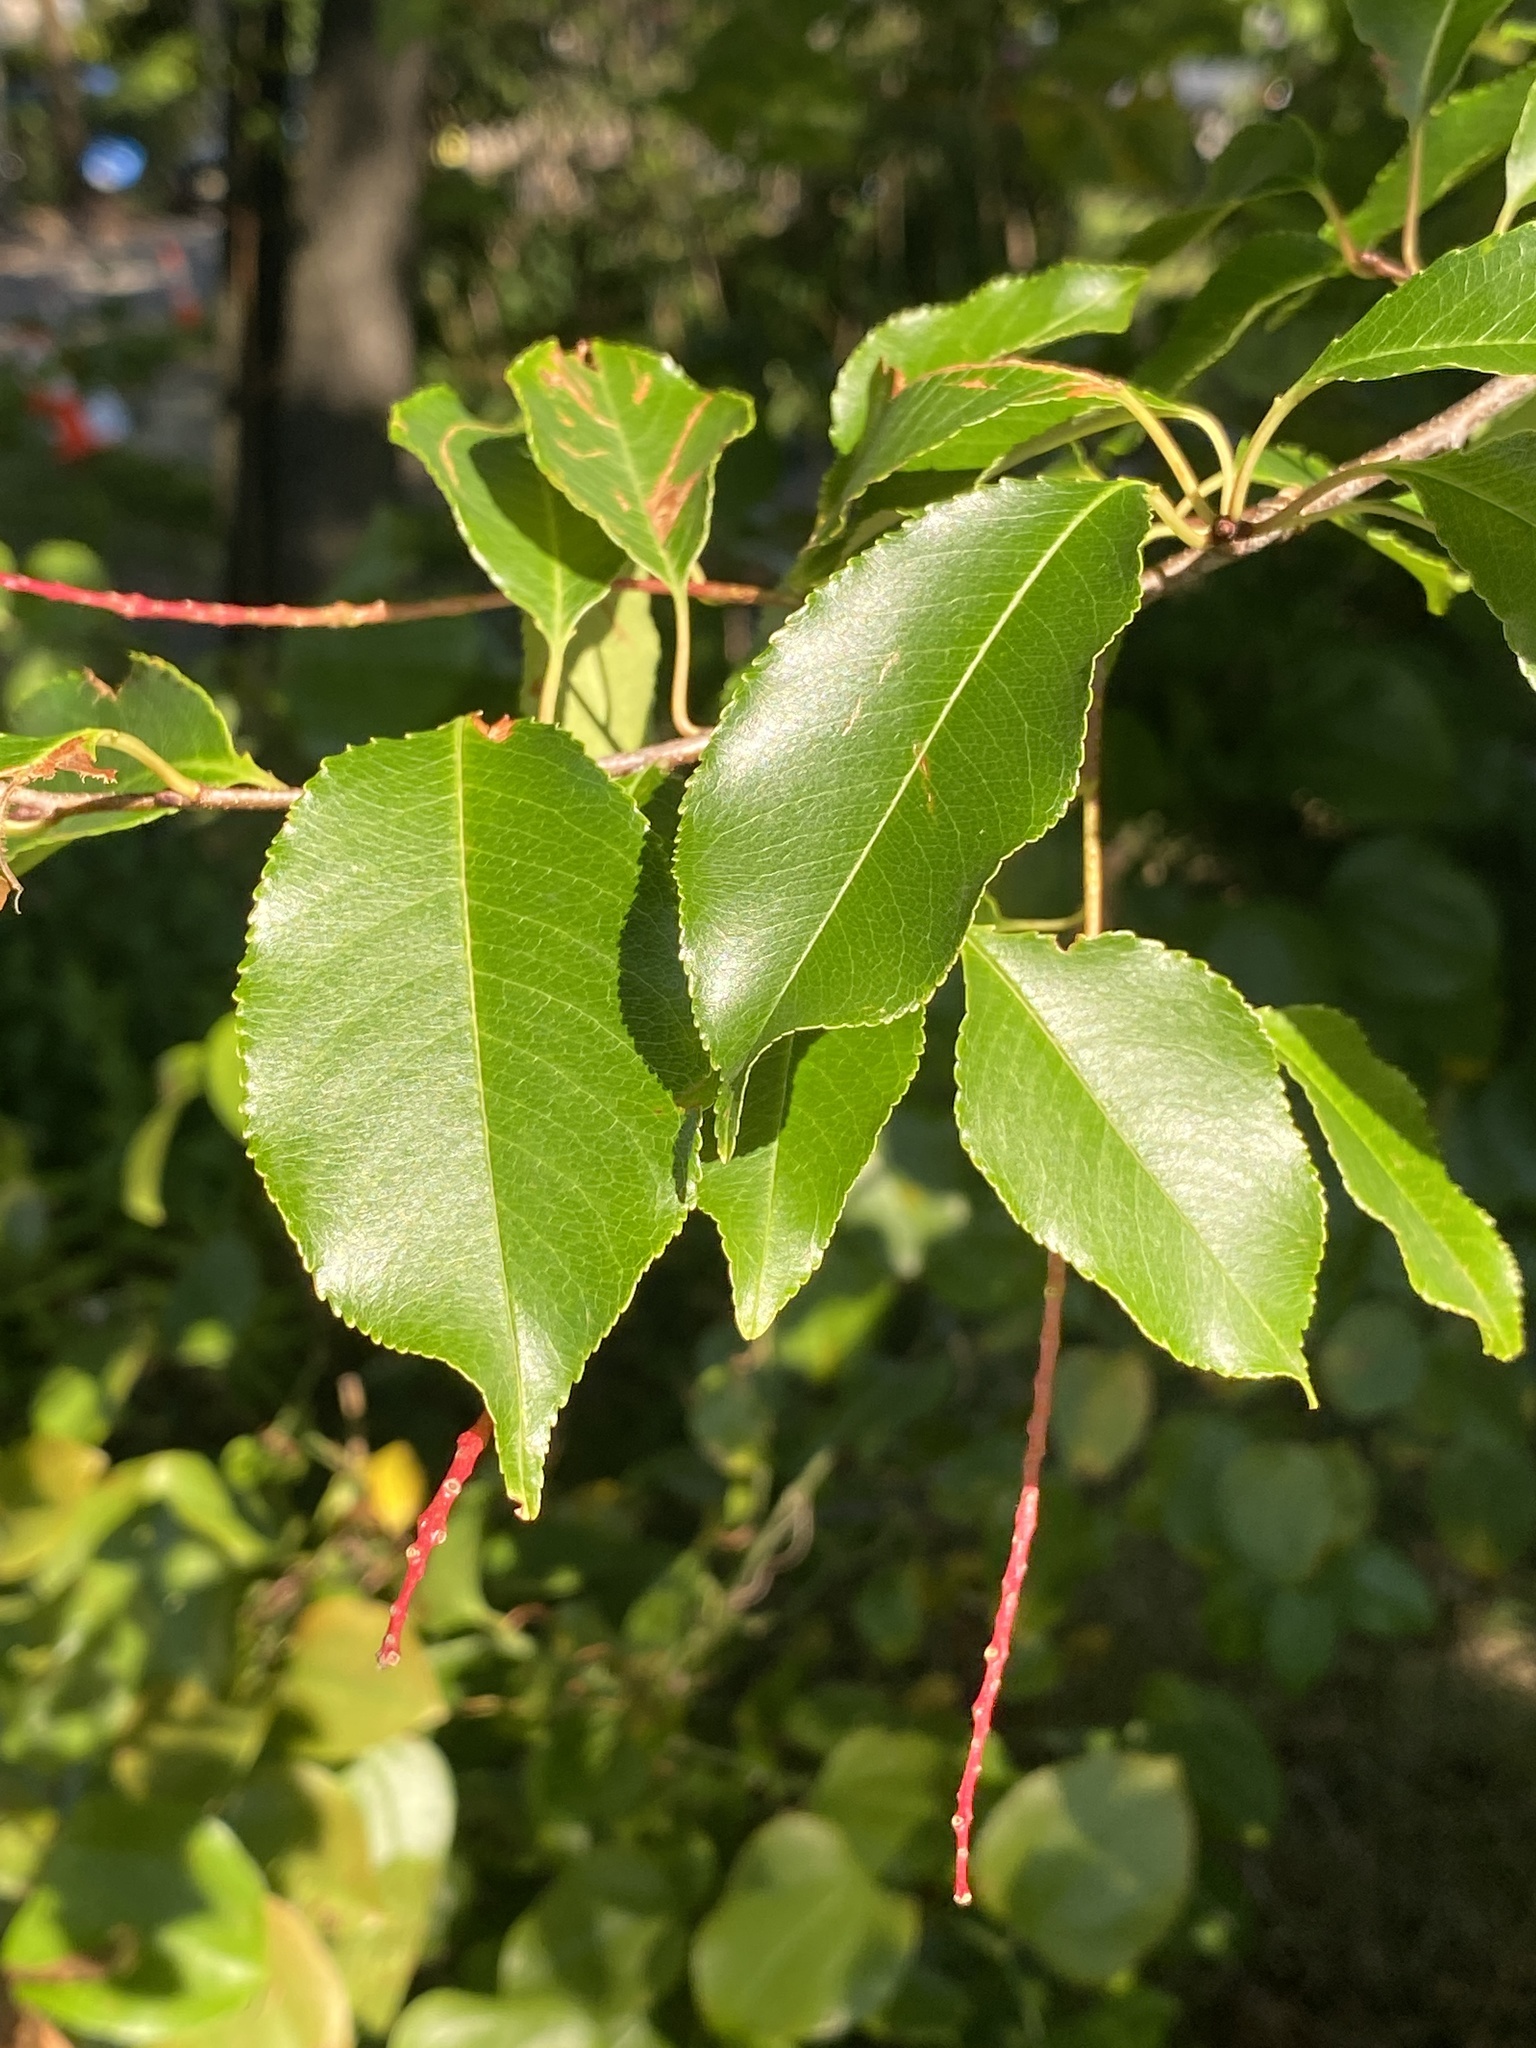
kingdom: Plantae
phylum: Tracheophyta
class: Magnoliopsida
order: Rosales
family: Rosaceae
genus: Prunus
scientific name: Prunus serotina
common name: Black cherry
